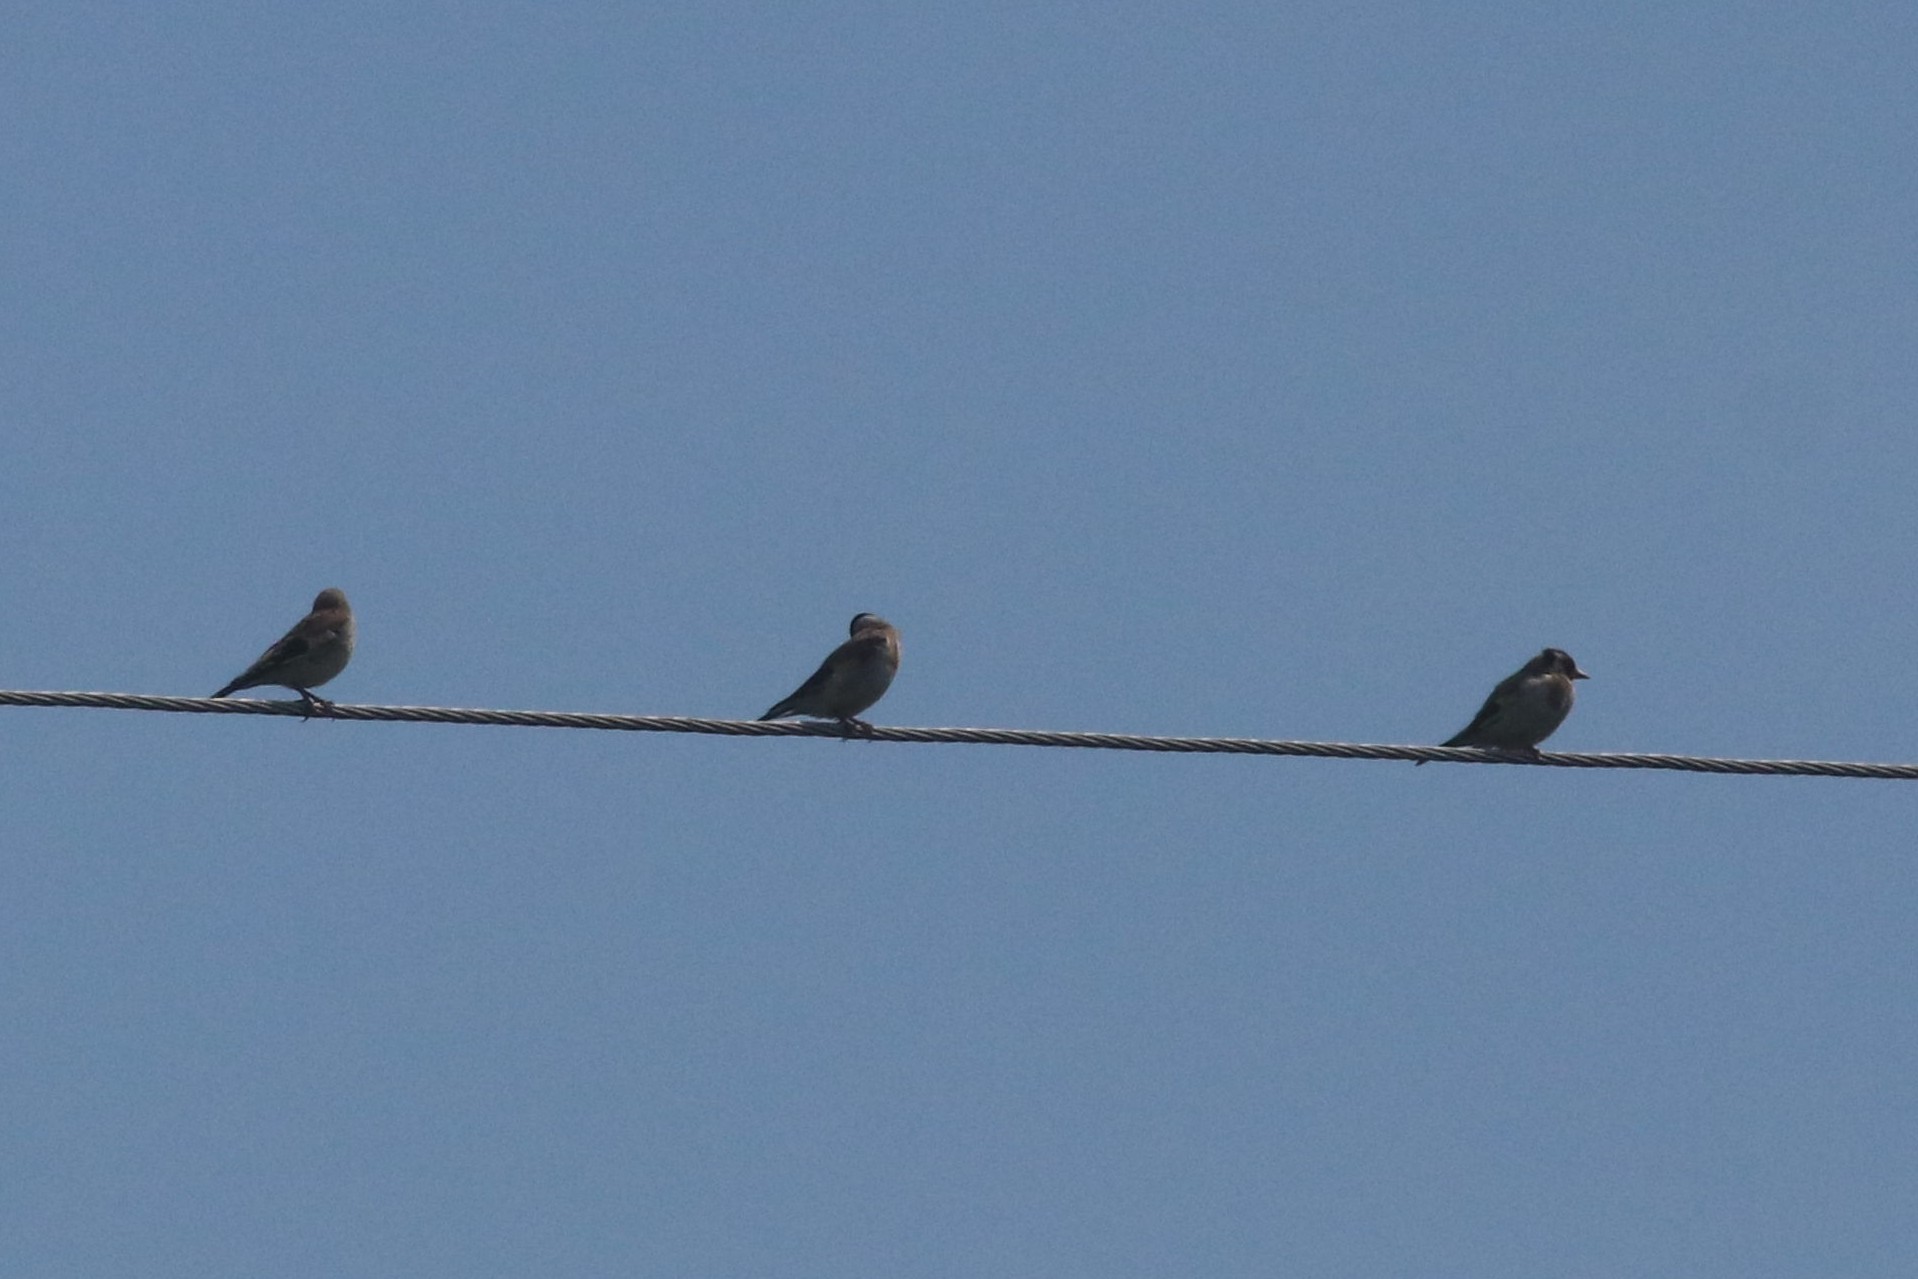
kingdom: Animalia
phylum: Chordata
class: Aves
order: Passeriformes
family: Fringillidae
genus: Carduelis
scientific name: Carduelis carduelis
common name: European goldfinch
